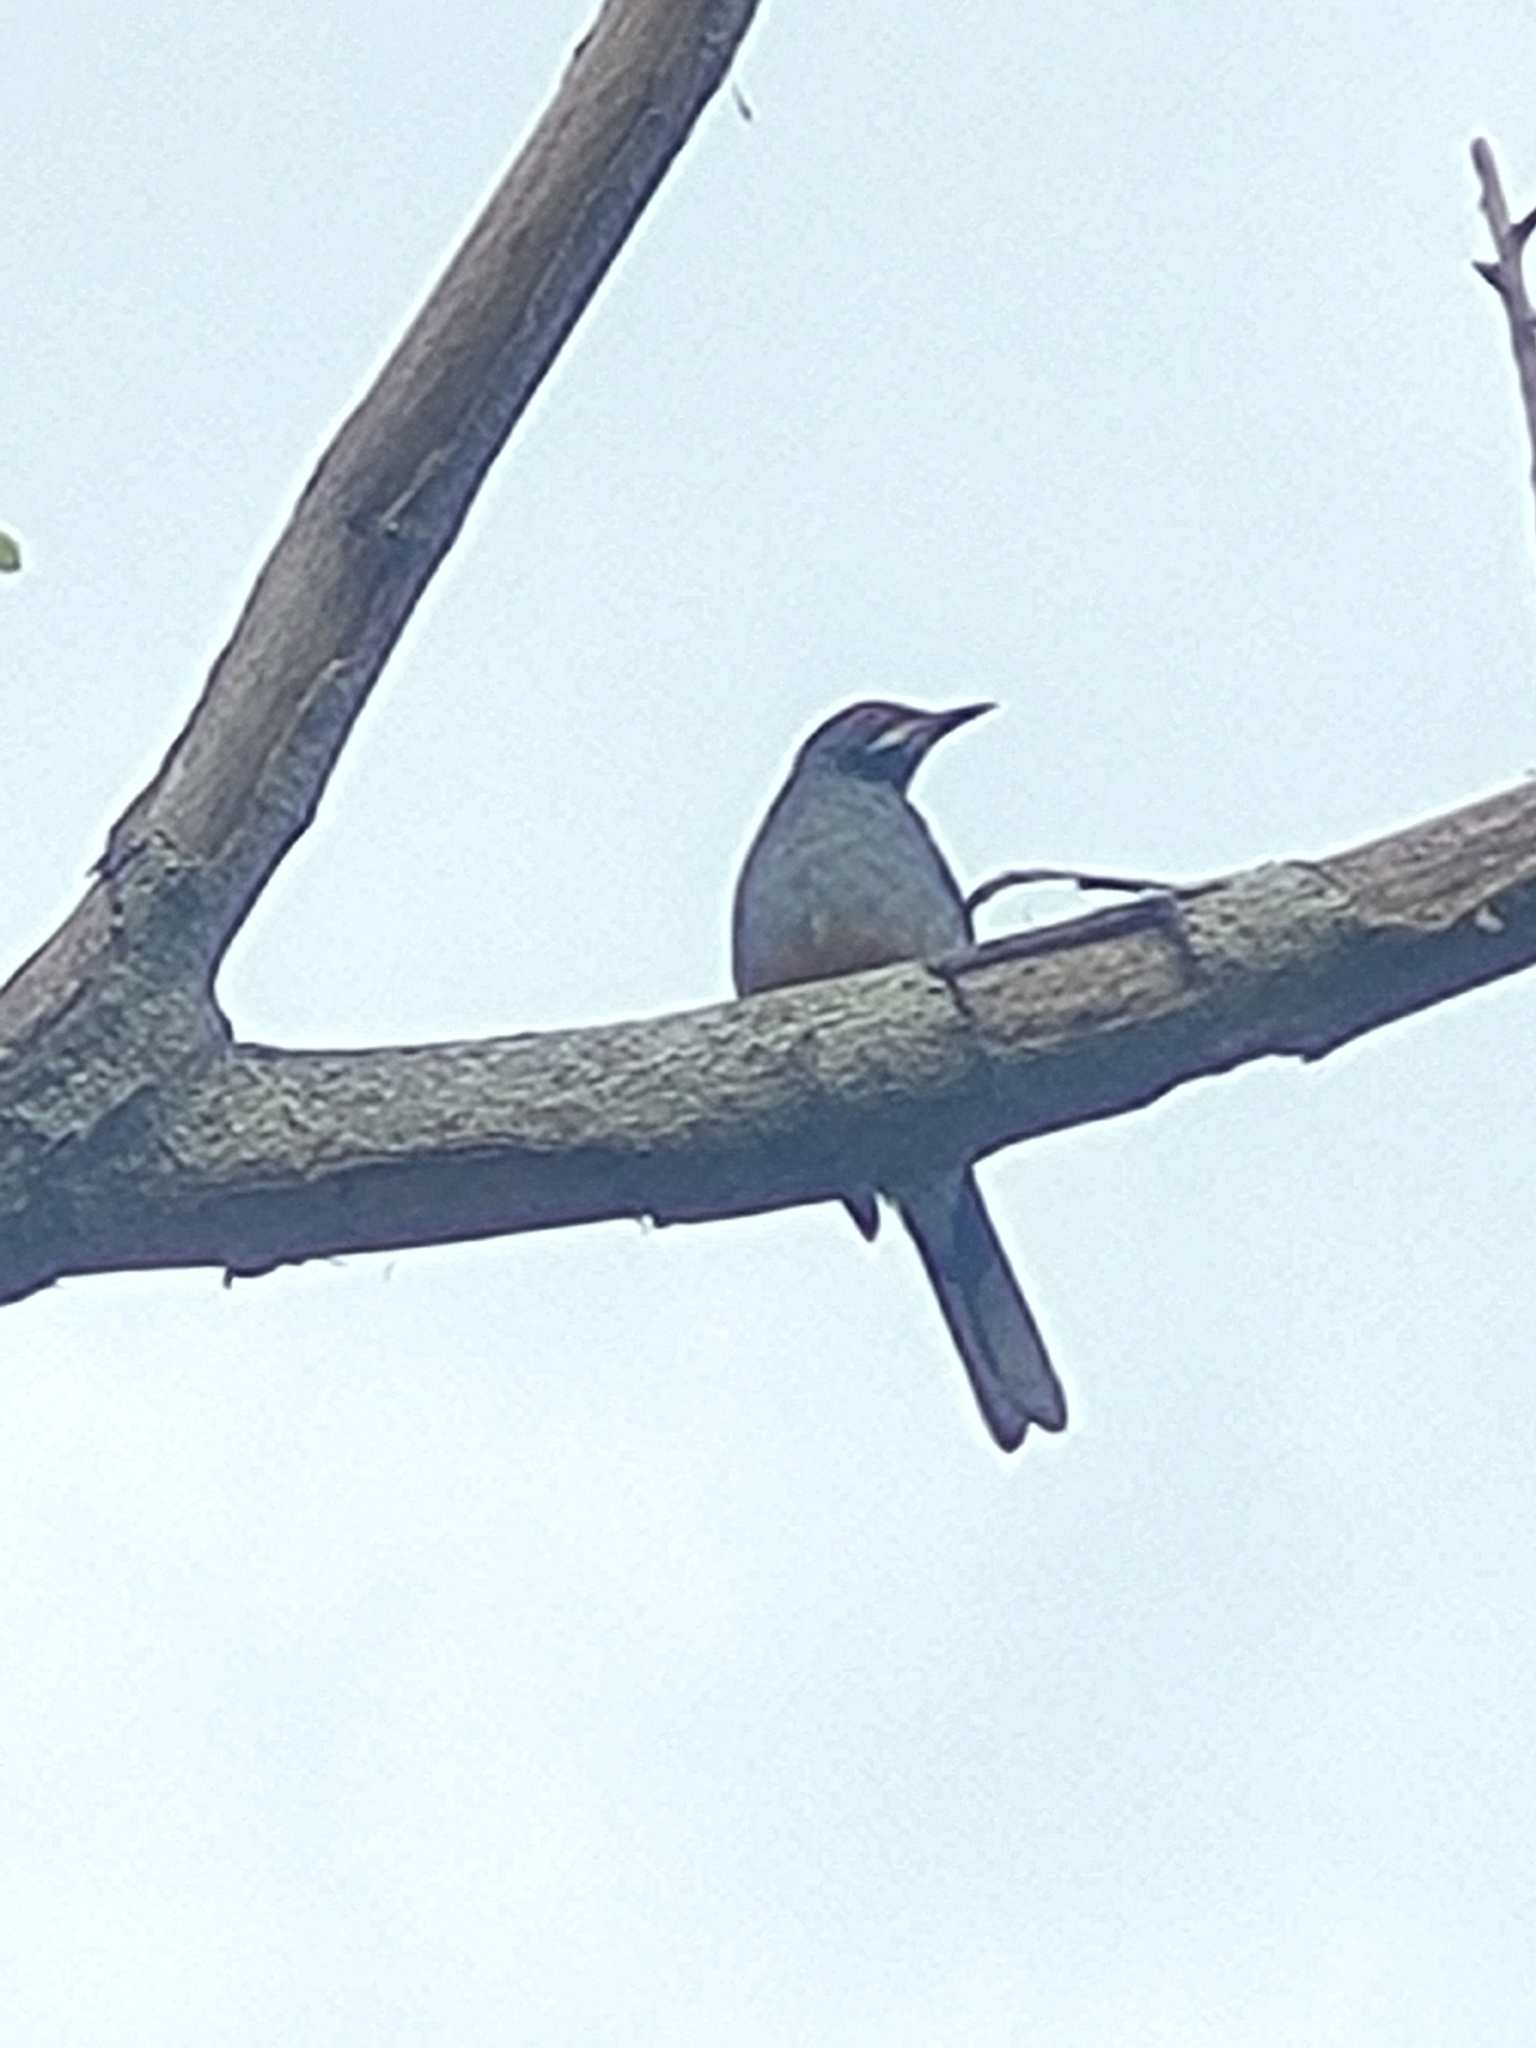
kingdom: Animalia
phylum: Chordata
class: Aves
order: Passeriformes
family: Turdidae
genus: Turdus
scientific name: Turdus plumbeus
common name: Red-legged thrush
